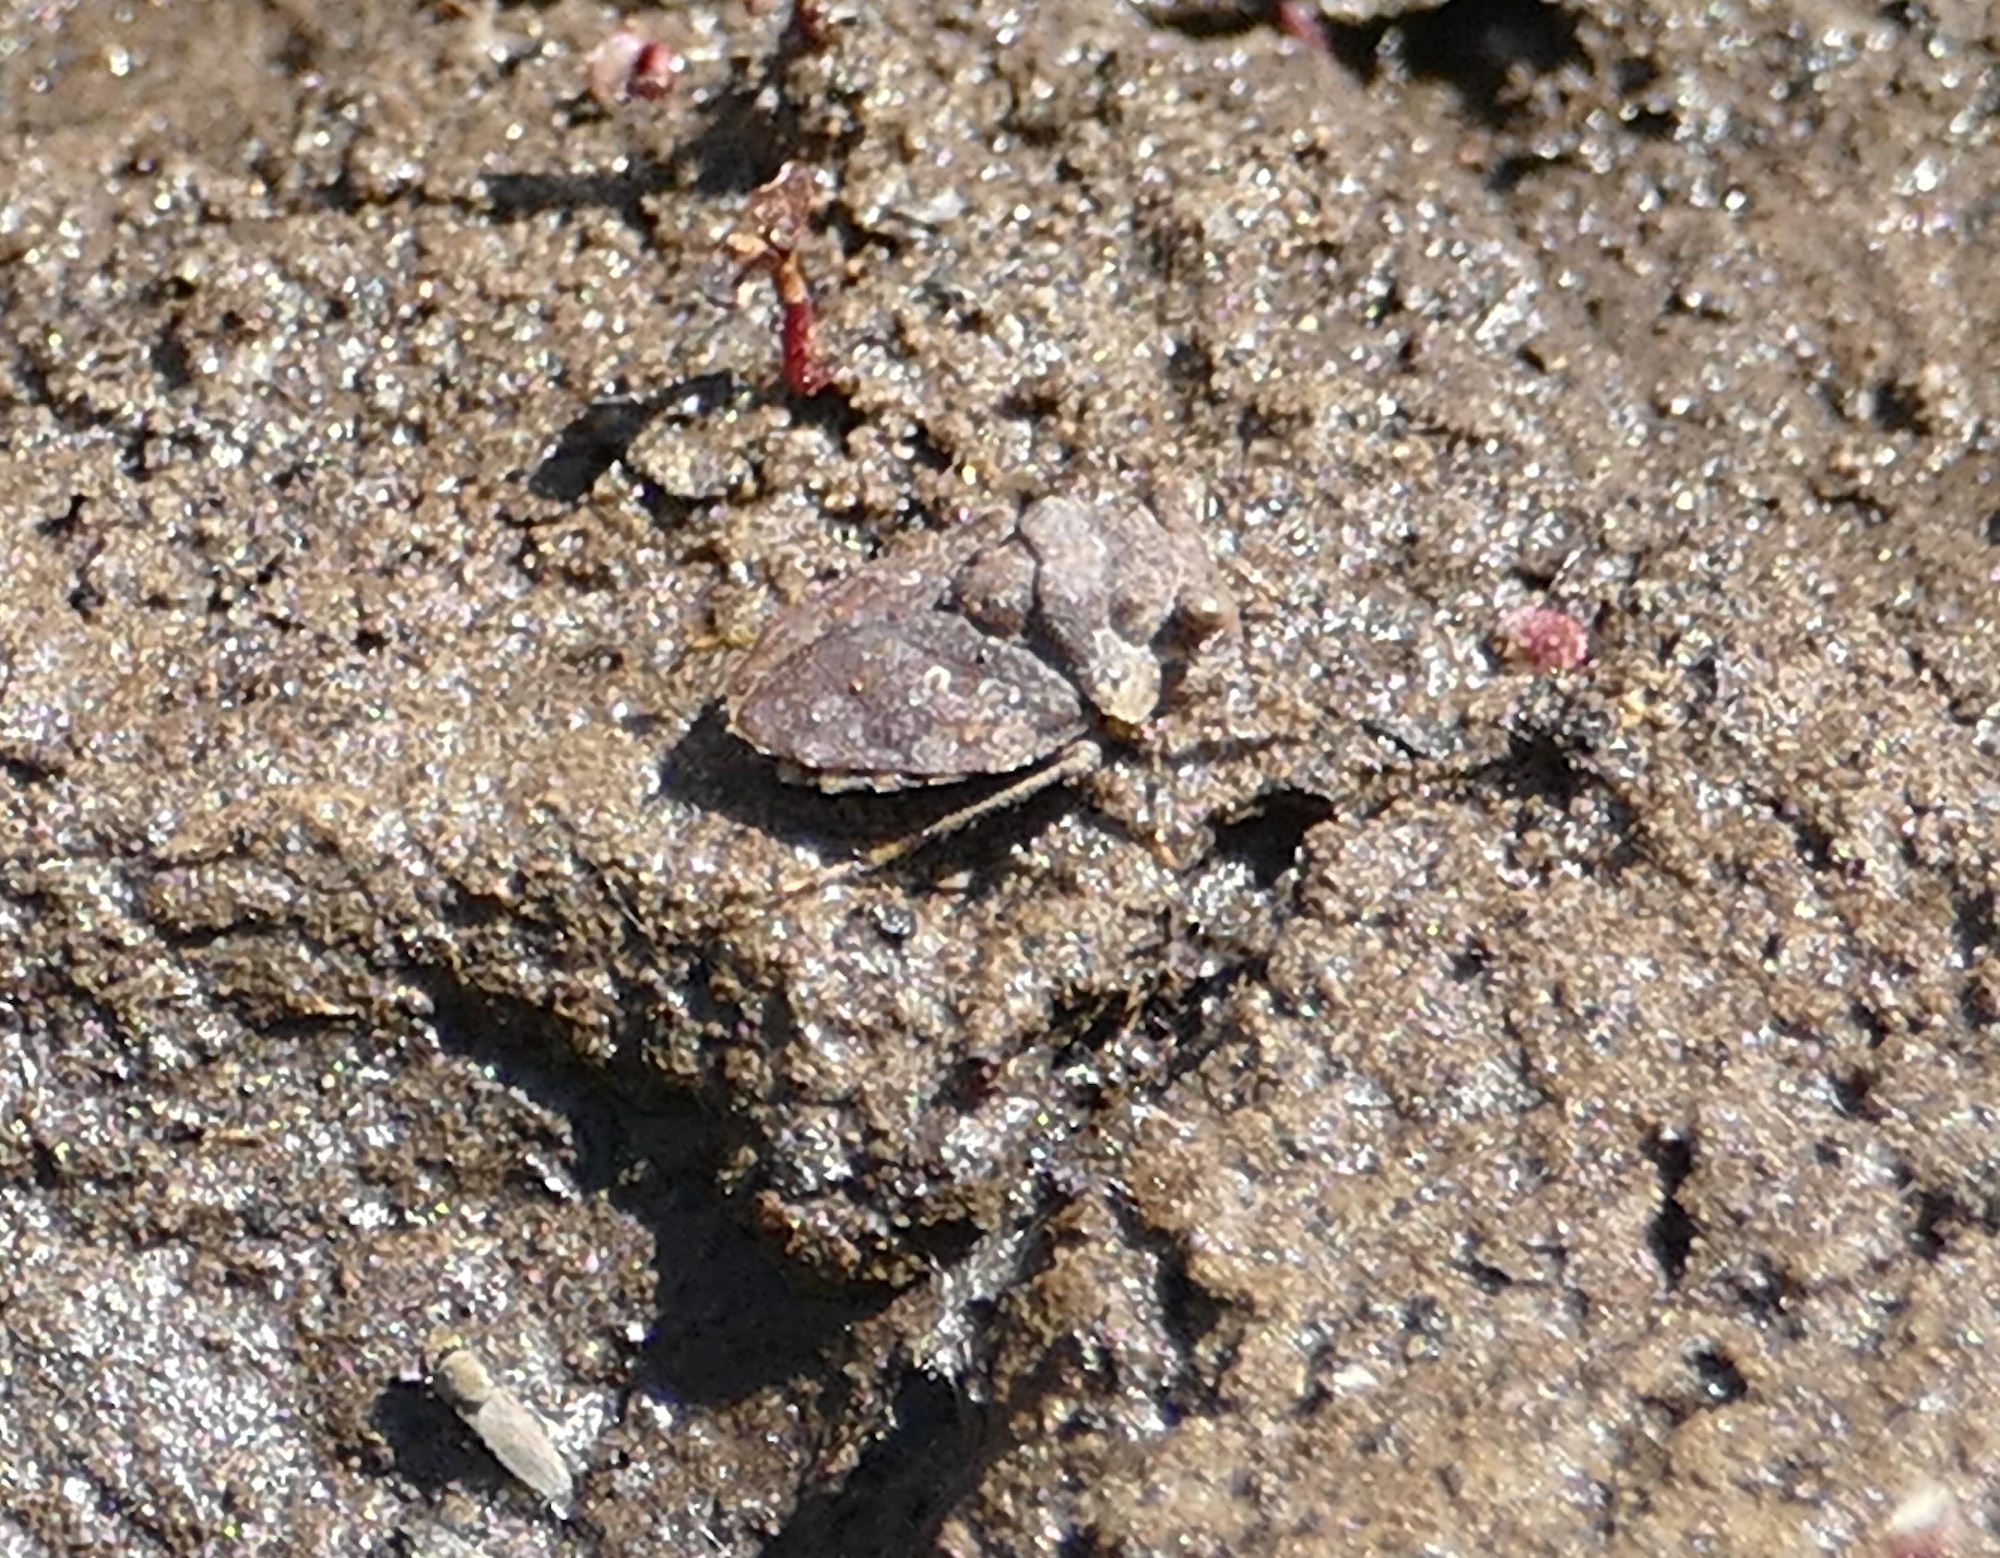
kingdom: Animalia
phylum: Arthropoda
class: Insecta
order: Hemiptera
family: Gelastocoridae
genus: Gelastocoris
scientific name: Gelastocoris oculatus
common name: Toad bug
